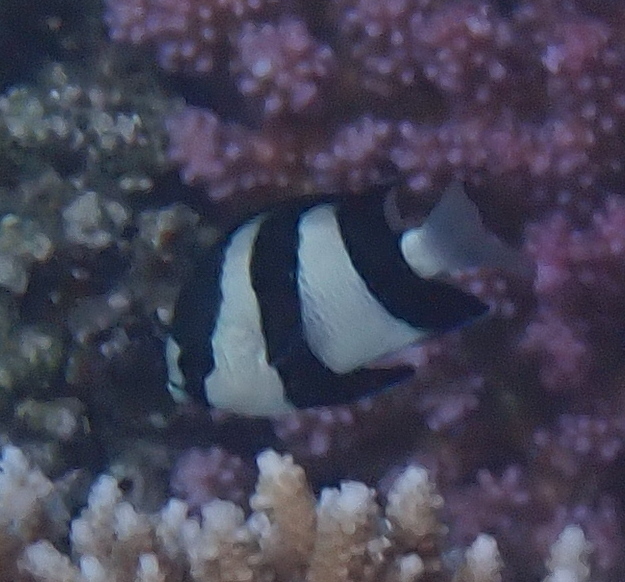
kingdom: Animalia
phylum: Chordata
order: Perciformes
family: Pomacentridae
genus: Dascyllus
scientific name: Dascyllus abudafur
